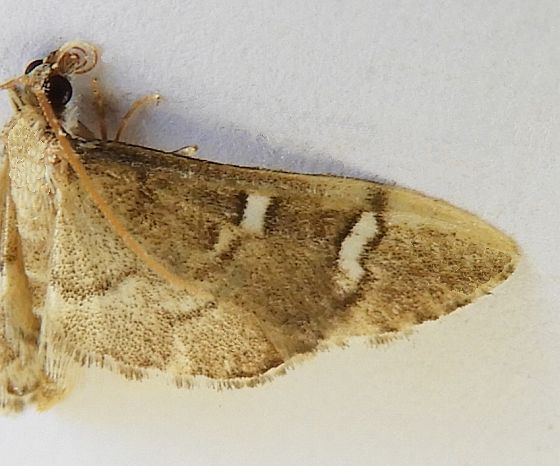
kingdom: Animalia
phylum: Arthropoda
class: Insecta
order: Lepidoptera
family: Crambidae
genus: Desmia
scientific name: Desmia
